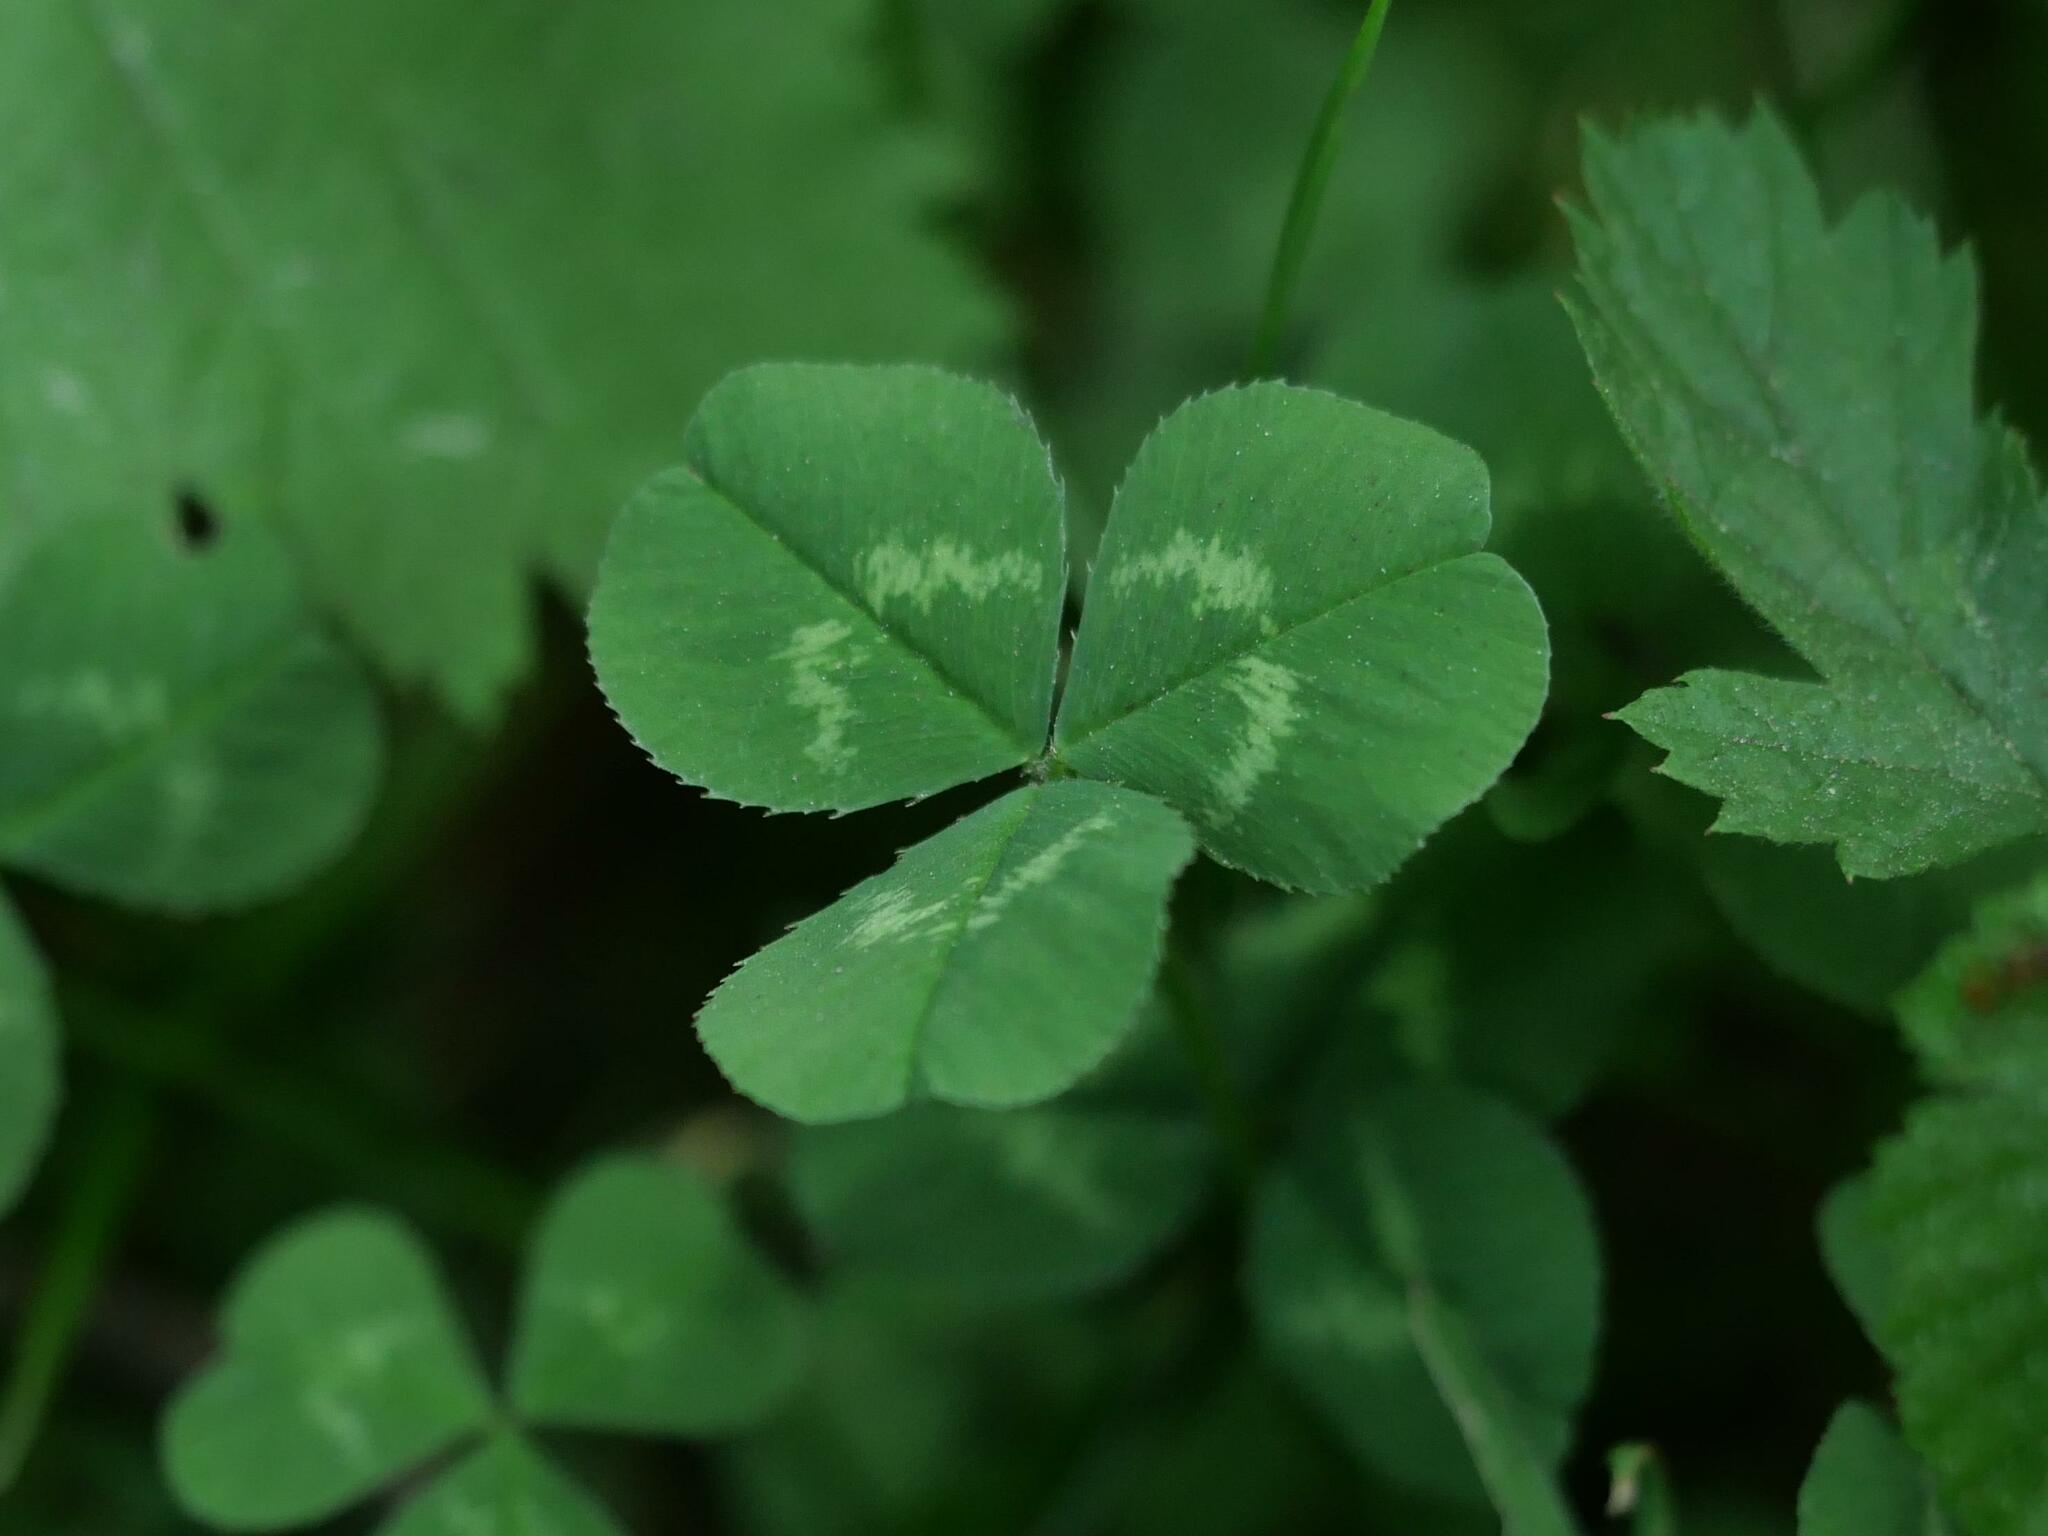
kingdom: Plantae
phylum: Tracheophyta
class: Magnoliopsida
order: Fabales
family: Fabaceae
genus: Trifolium
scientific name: Trifolium repens
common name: White clover
